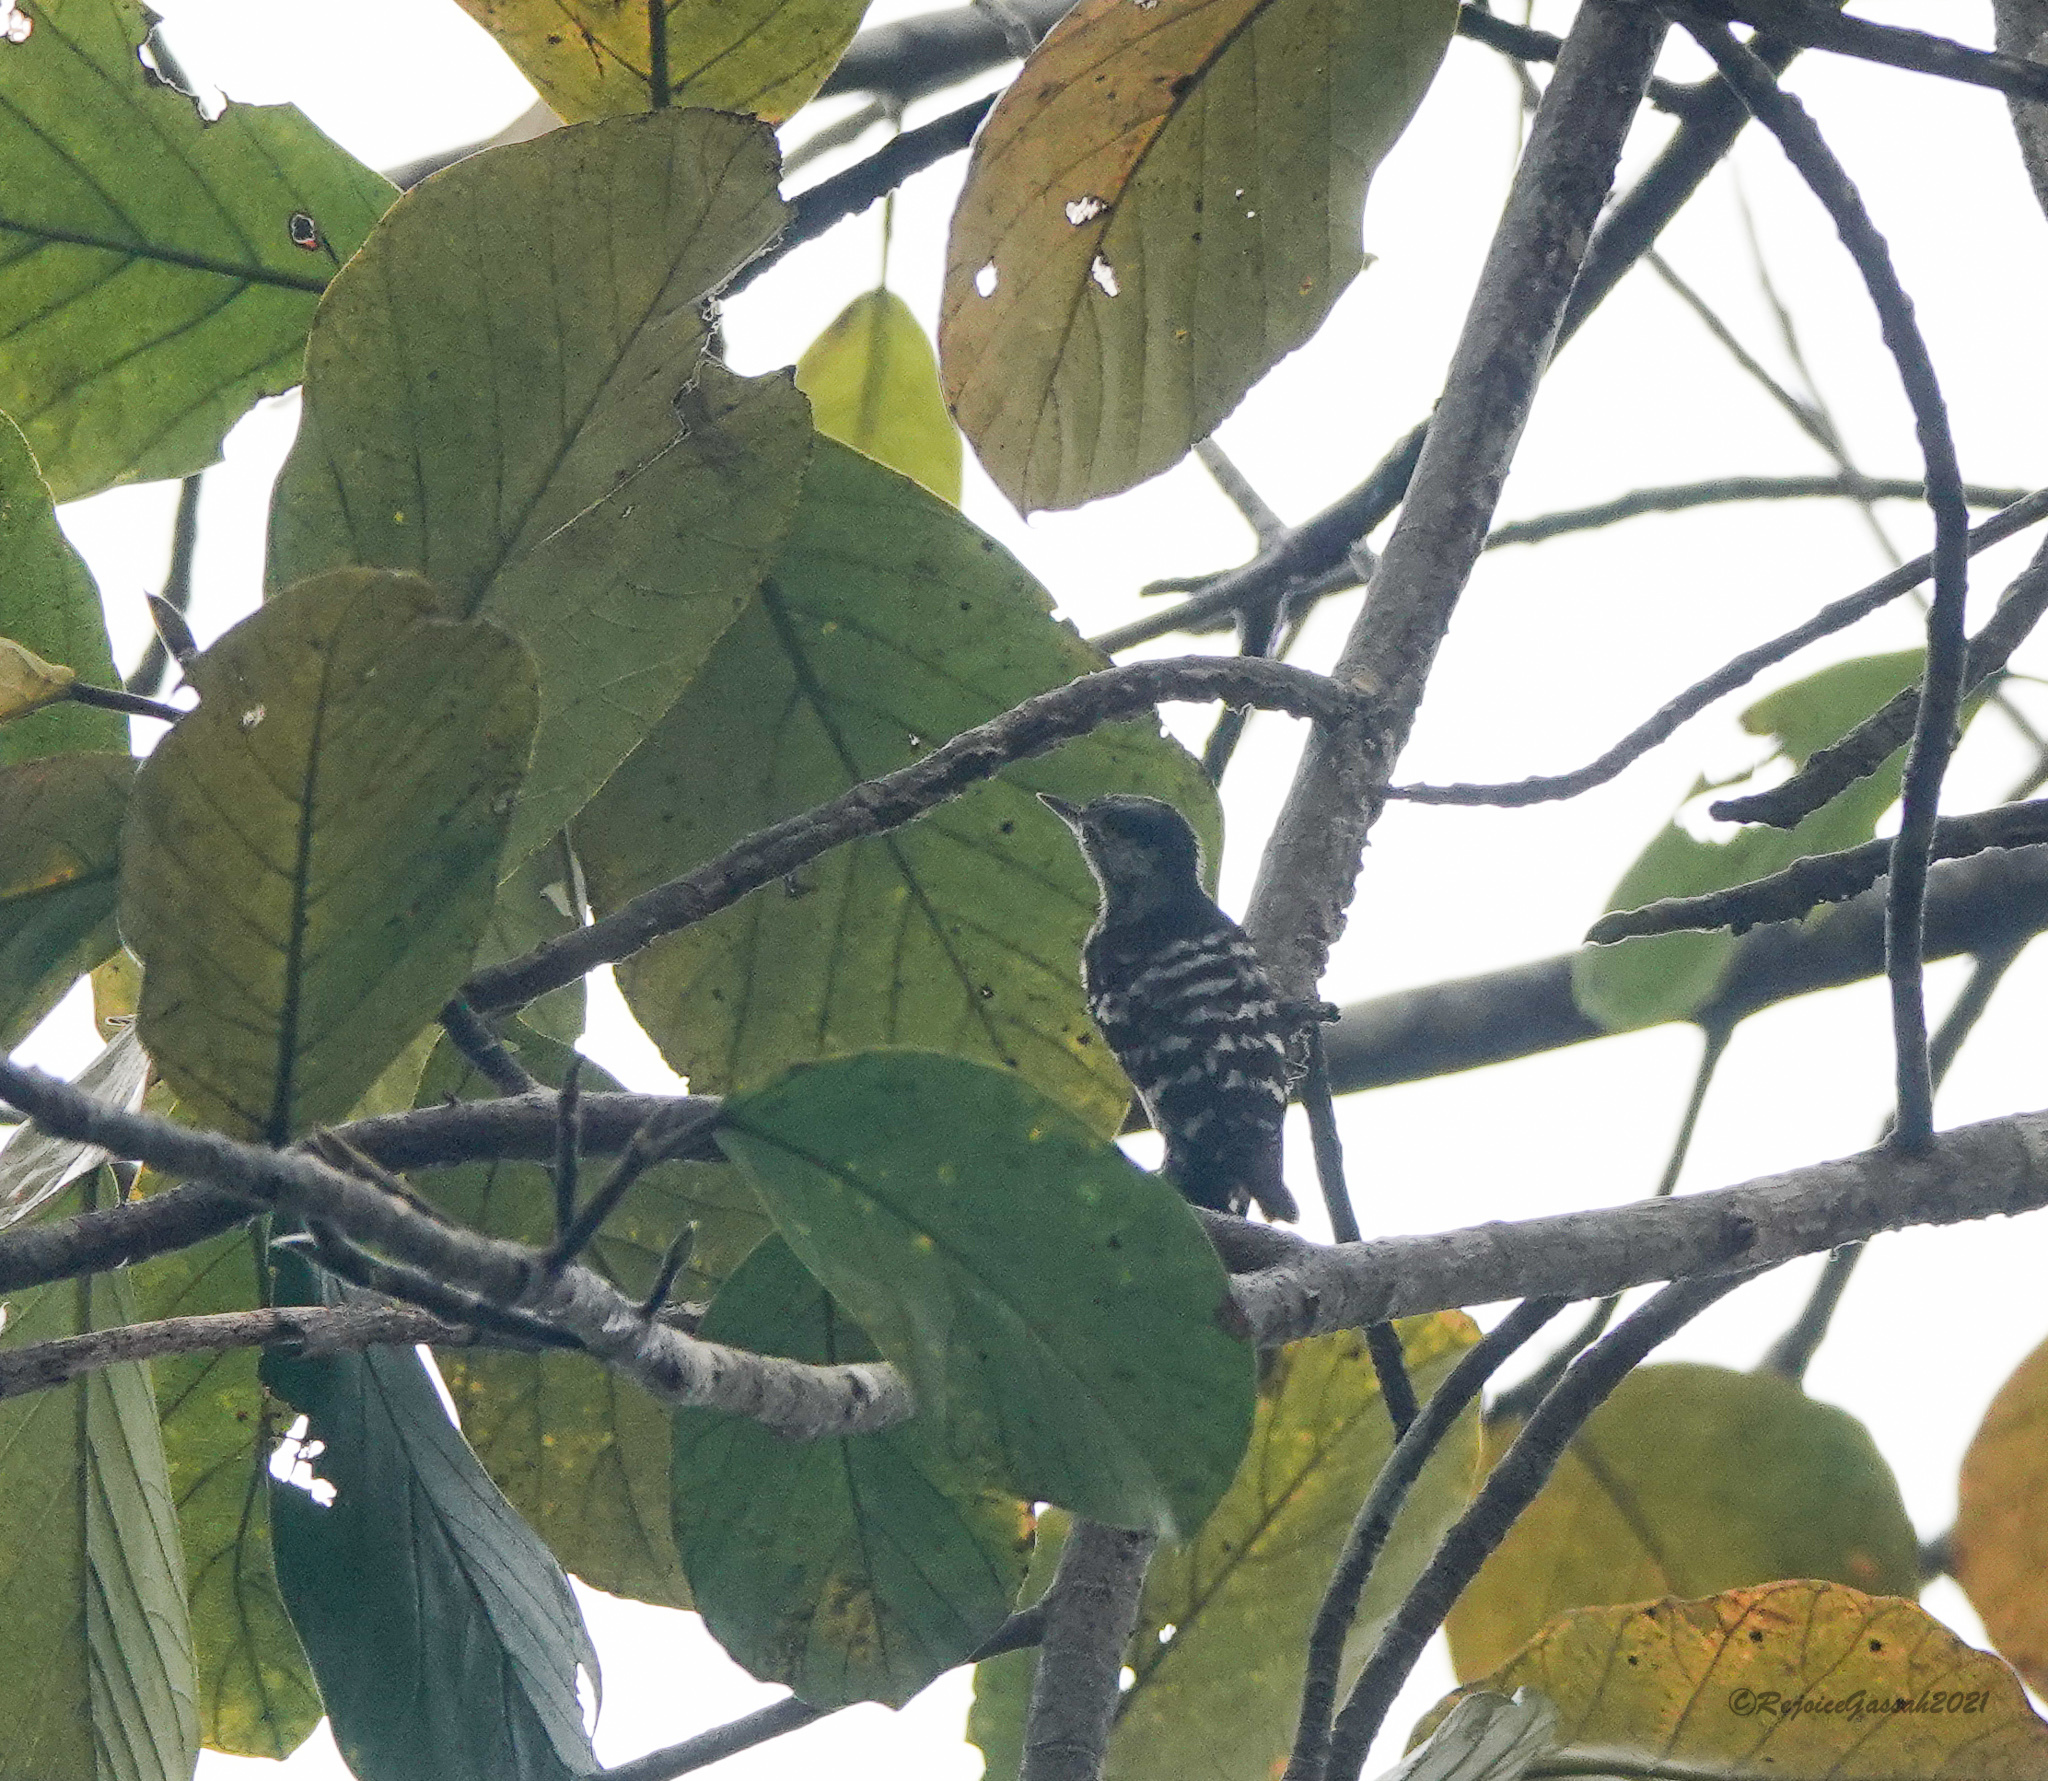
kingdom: Animalia
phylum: Chordata
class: Aves
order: Piciformes
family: Picidae
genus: Yungipicus
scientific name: Yungipicus canicapillus
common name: Grey-capped pygmy woodpecker
